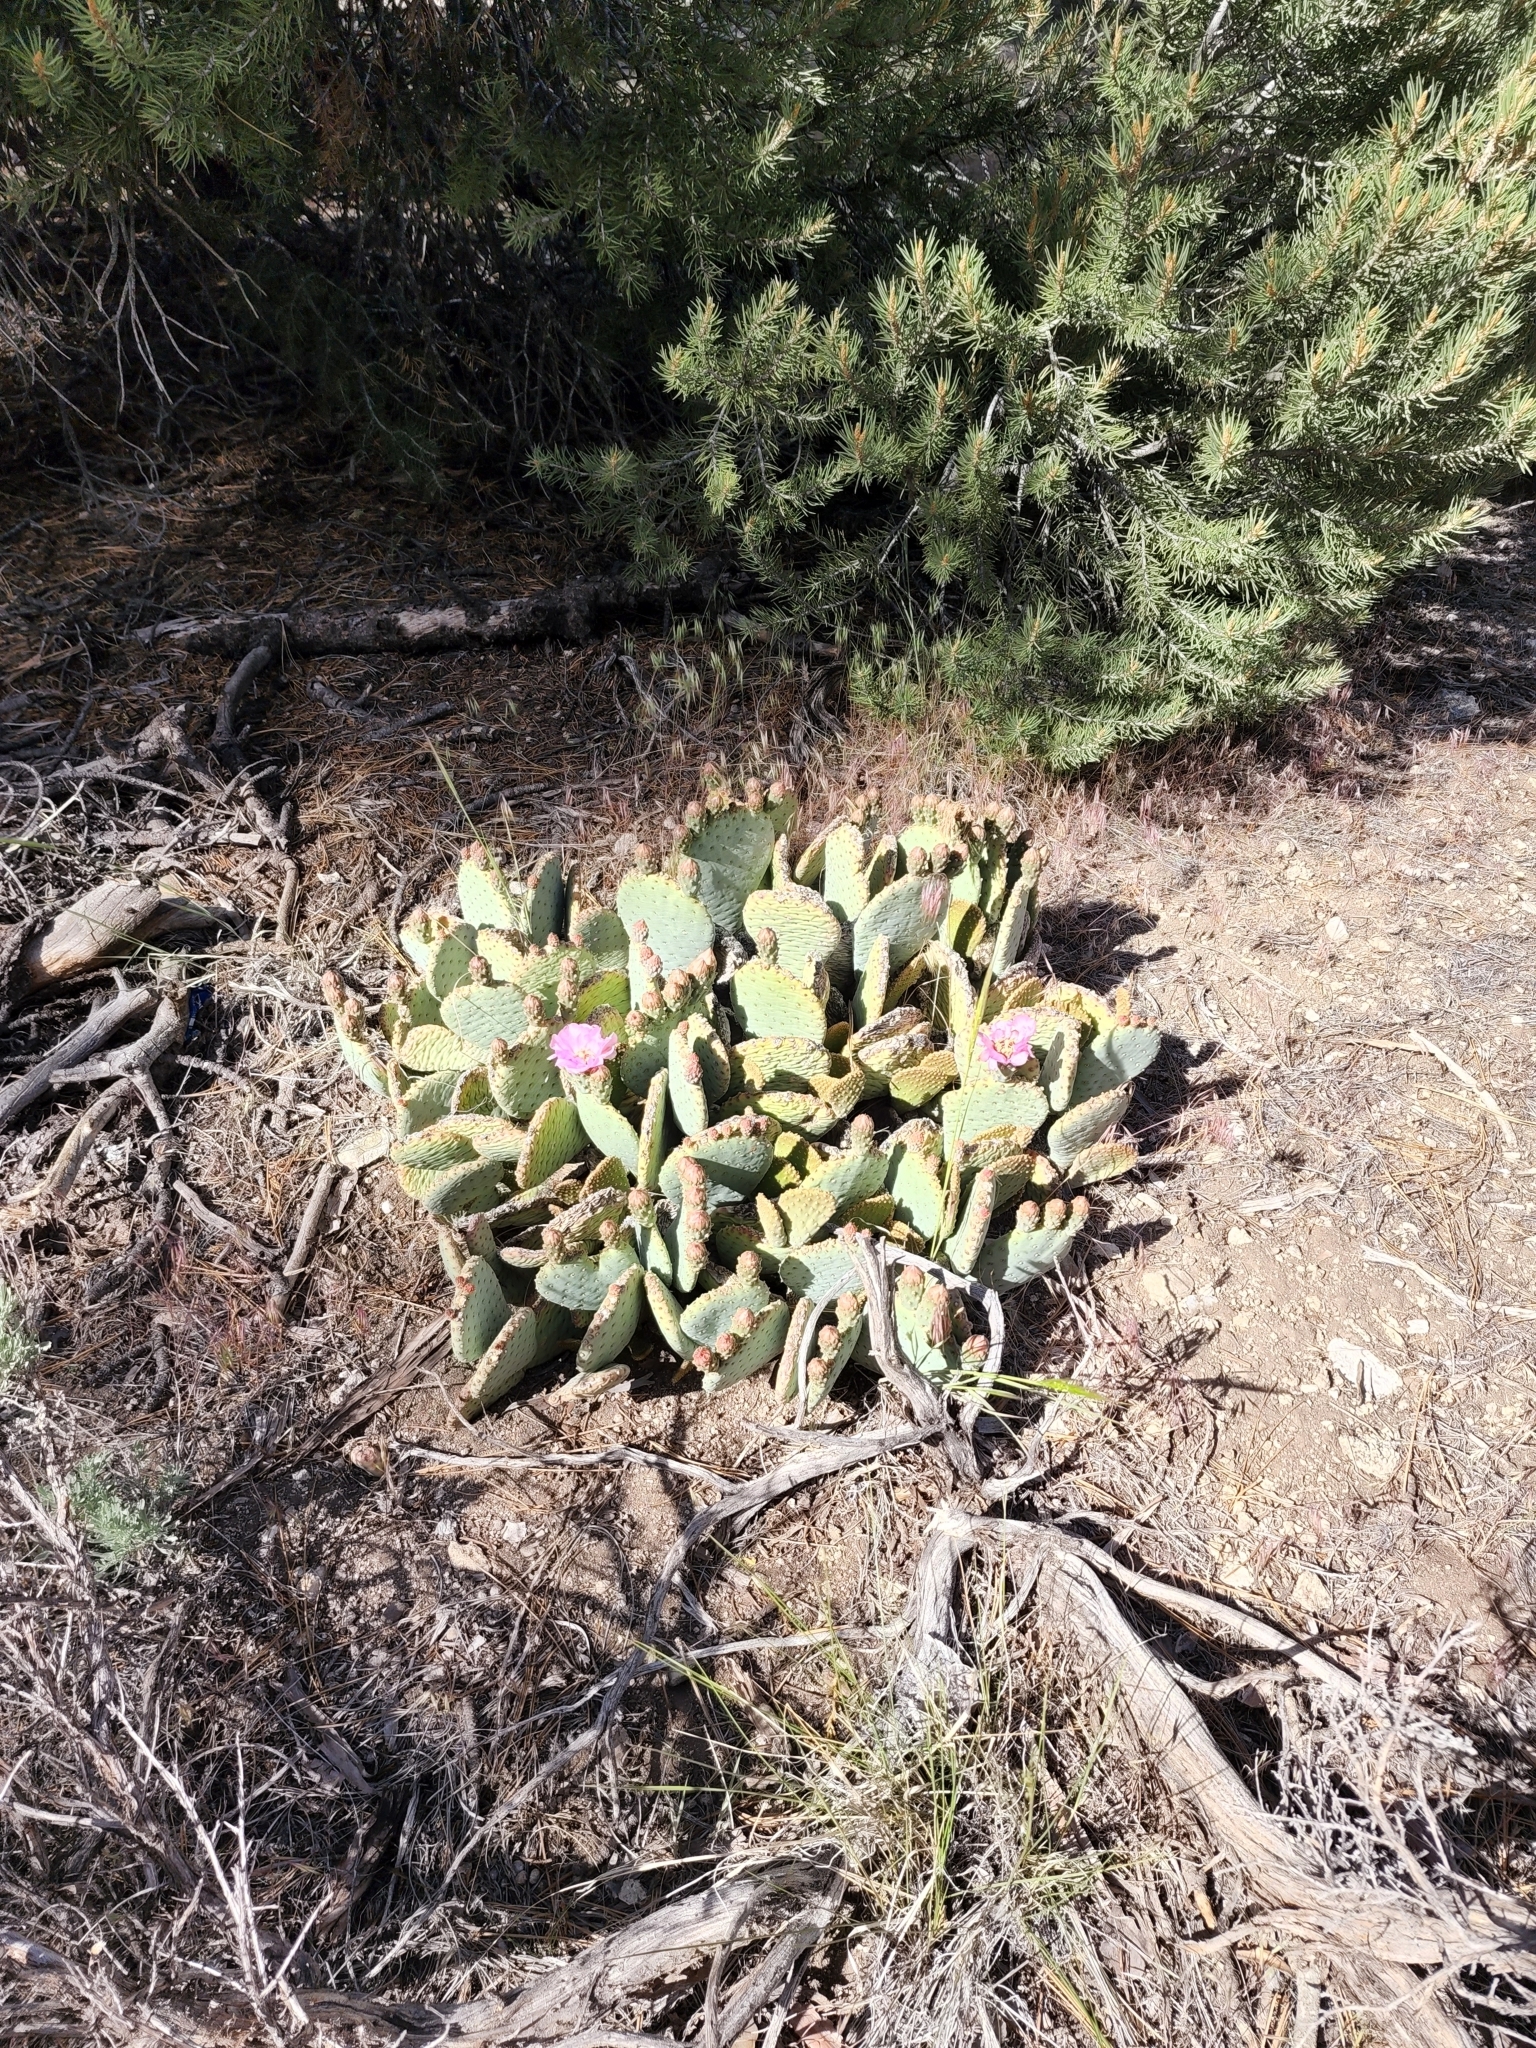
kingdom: Plantae
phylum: Tracheophyta
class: Magnoliopsida
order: Caryophyllales
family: Cactaceae
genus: Opuntia
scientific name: Opuntia basilaris
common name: Beavertail prickly-pear
